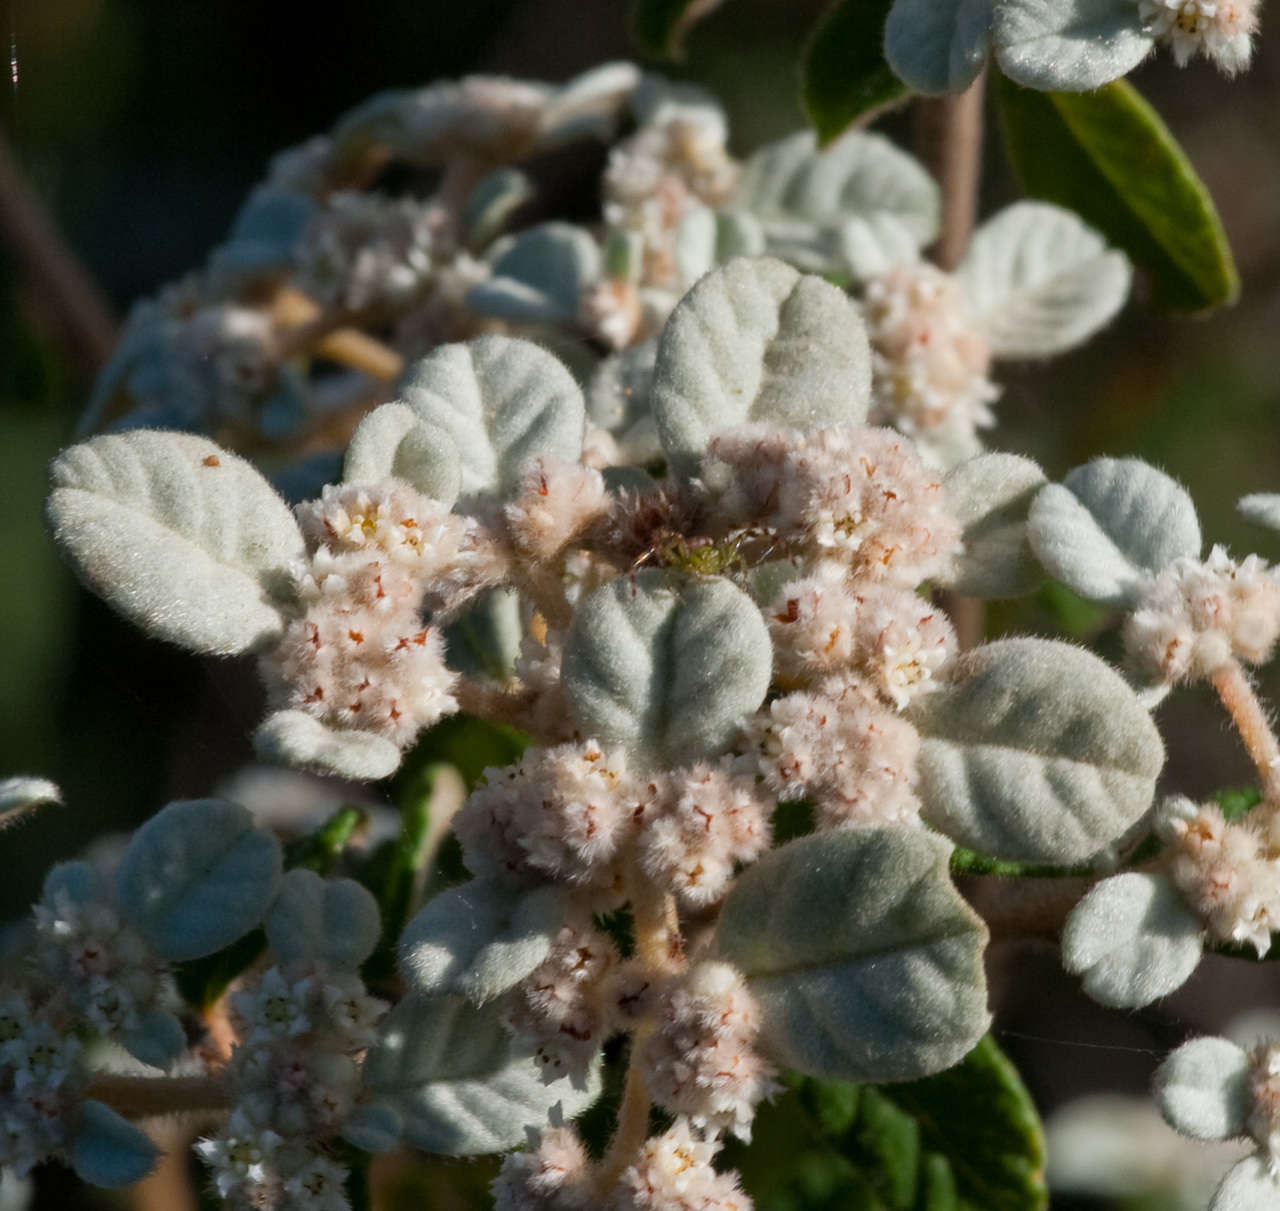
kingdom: Plantae
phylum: Tracheophyta
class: Magnoliopsida
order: Rosales
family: Rhamnaceae
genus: Spyridium
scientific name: Spyridium parvifolium
